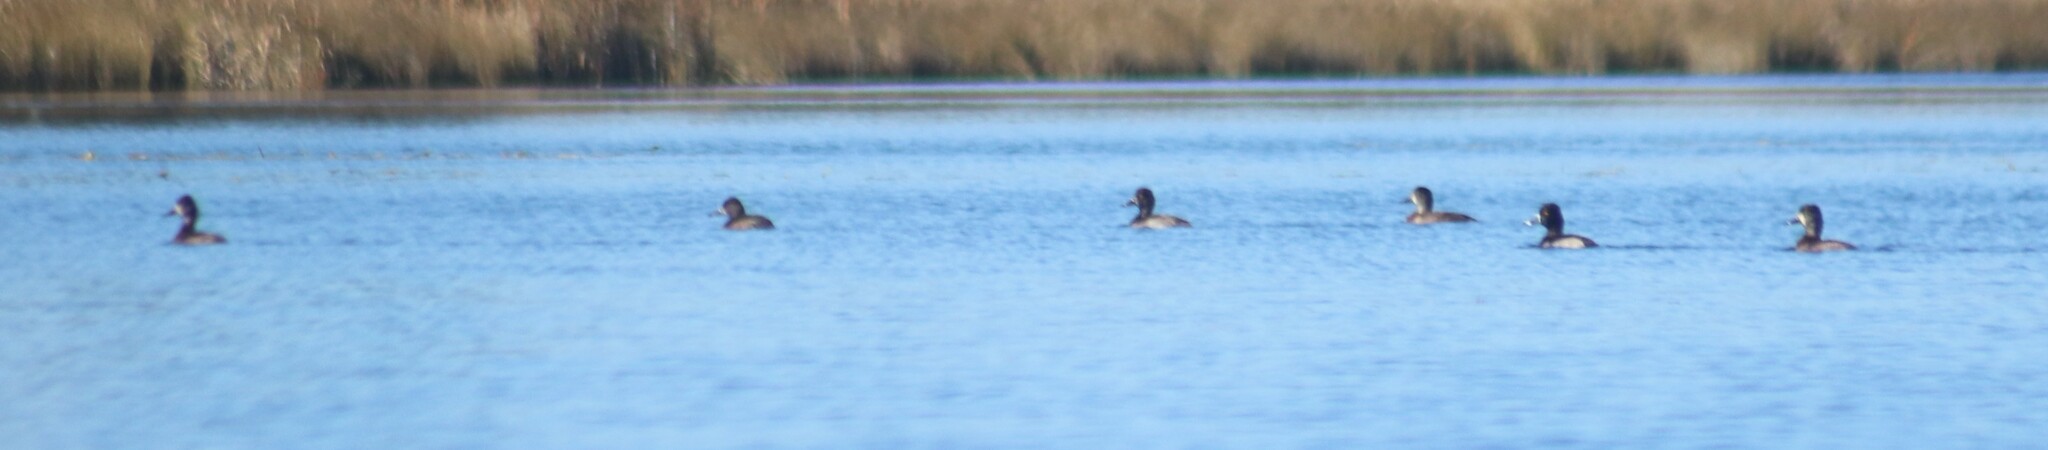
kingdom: Animalia
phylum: Chordata
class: Aves
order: Anseriformes
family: Anatidae
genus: Aythya
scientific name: Aythya collaris
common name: Ring-necked duck
